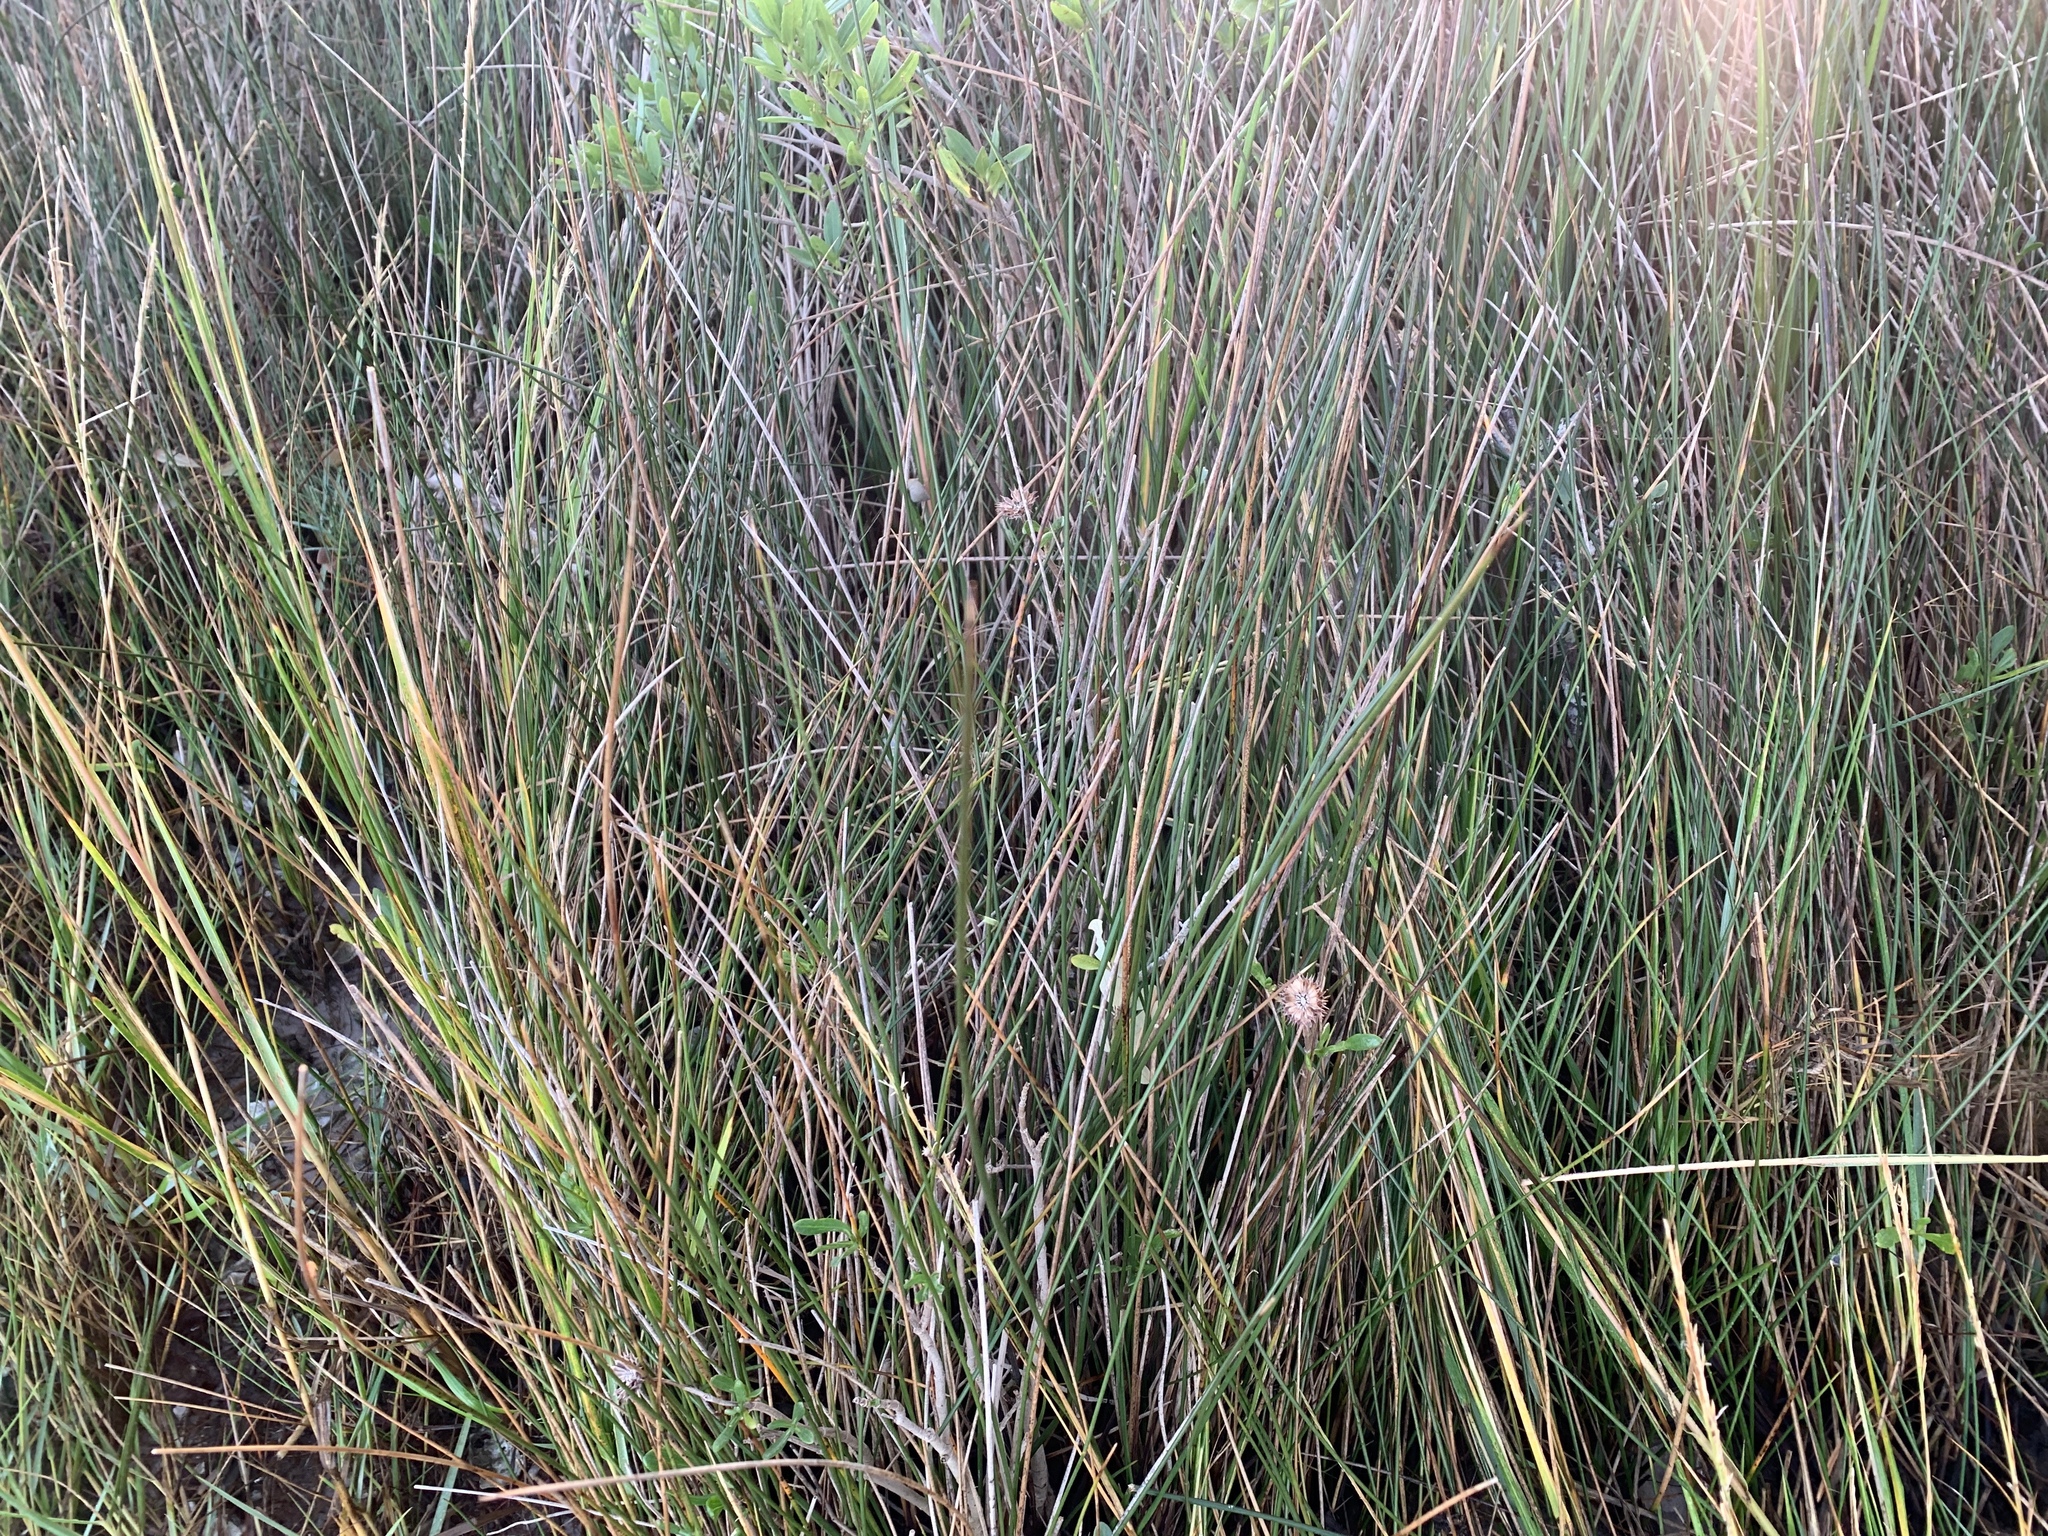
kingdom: Animalia
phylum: Mollusca
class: Gastropoda
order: Littorinimorpha
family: Littorinidae
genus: Littoraria
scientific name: Littoraria irrorata
